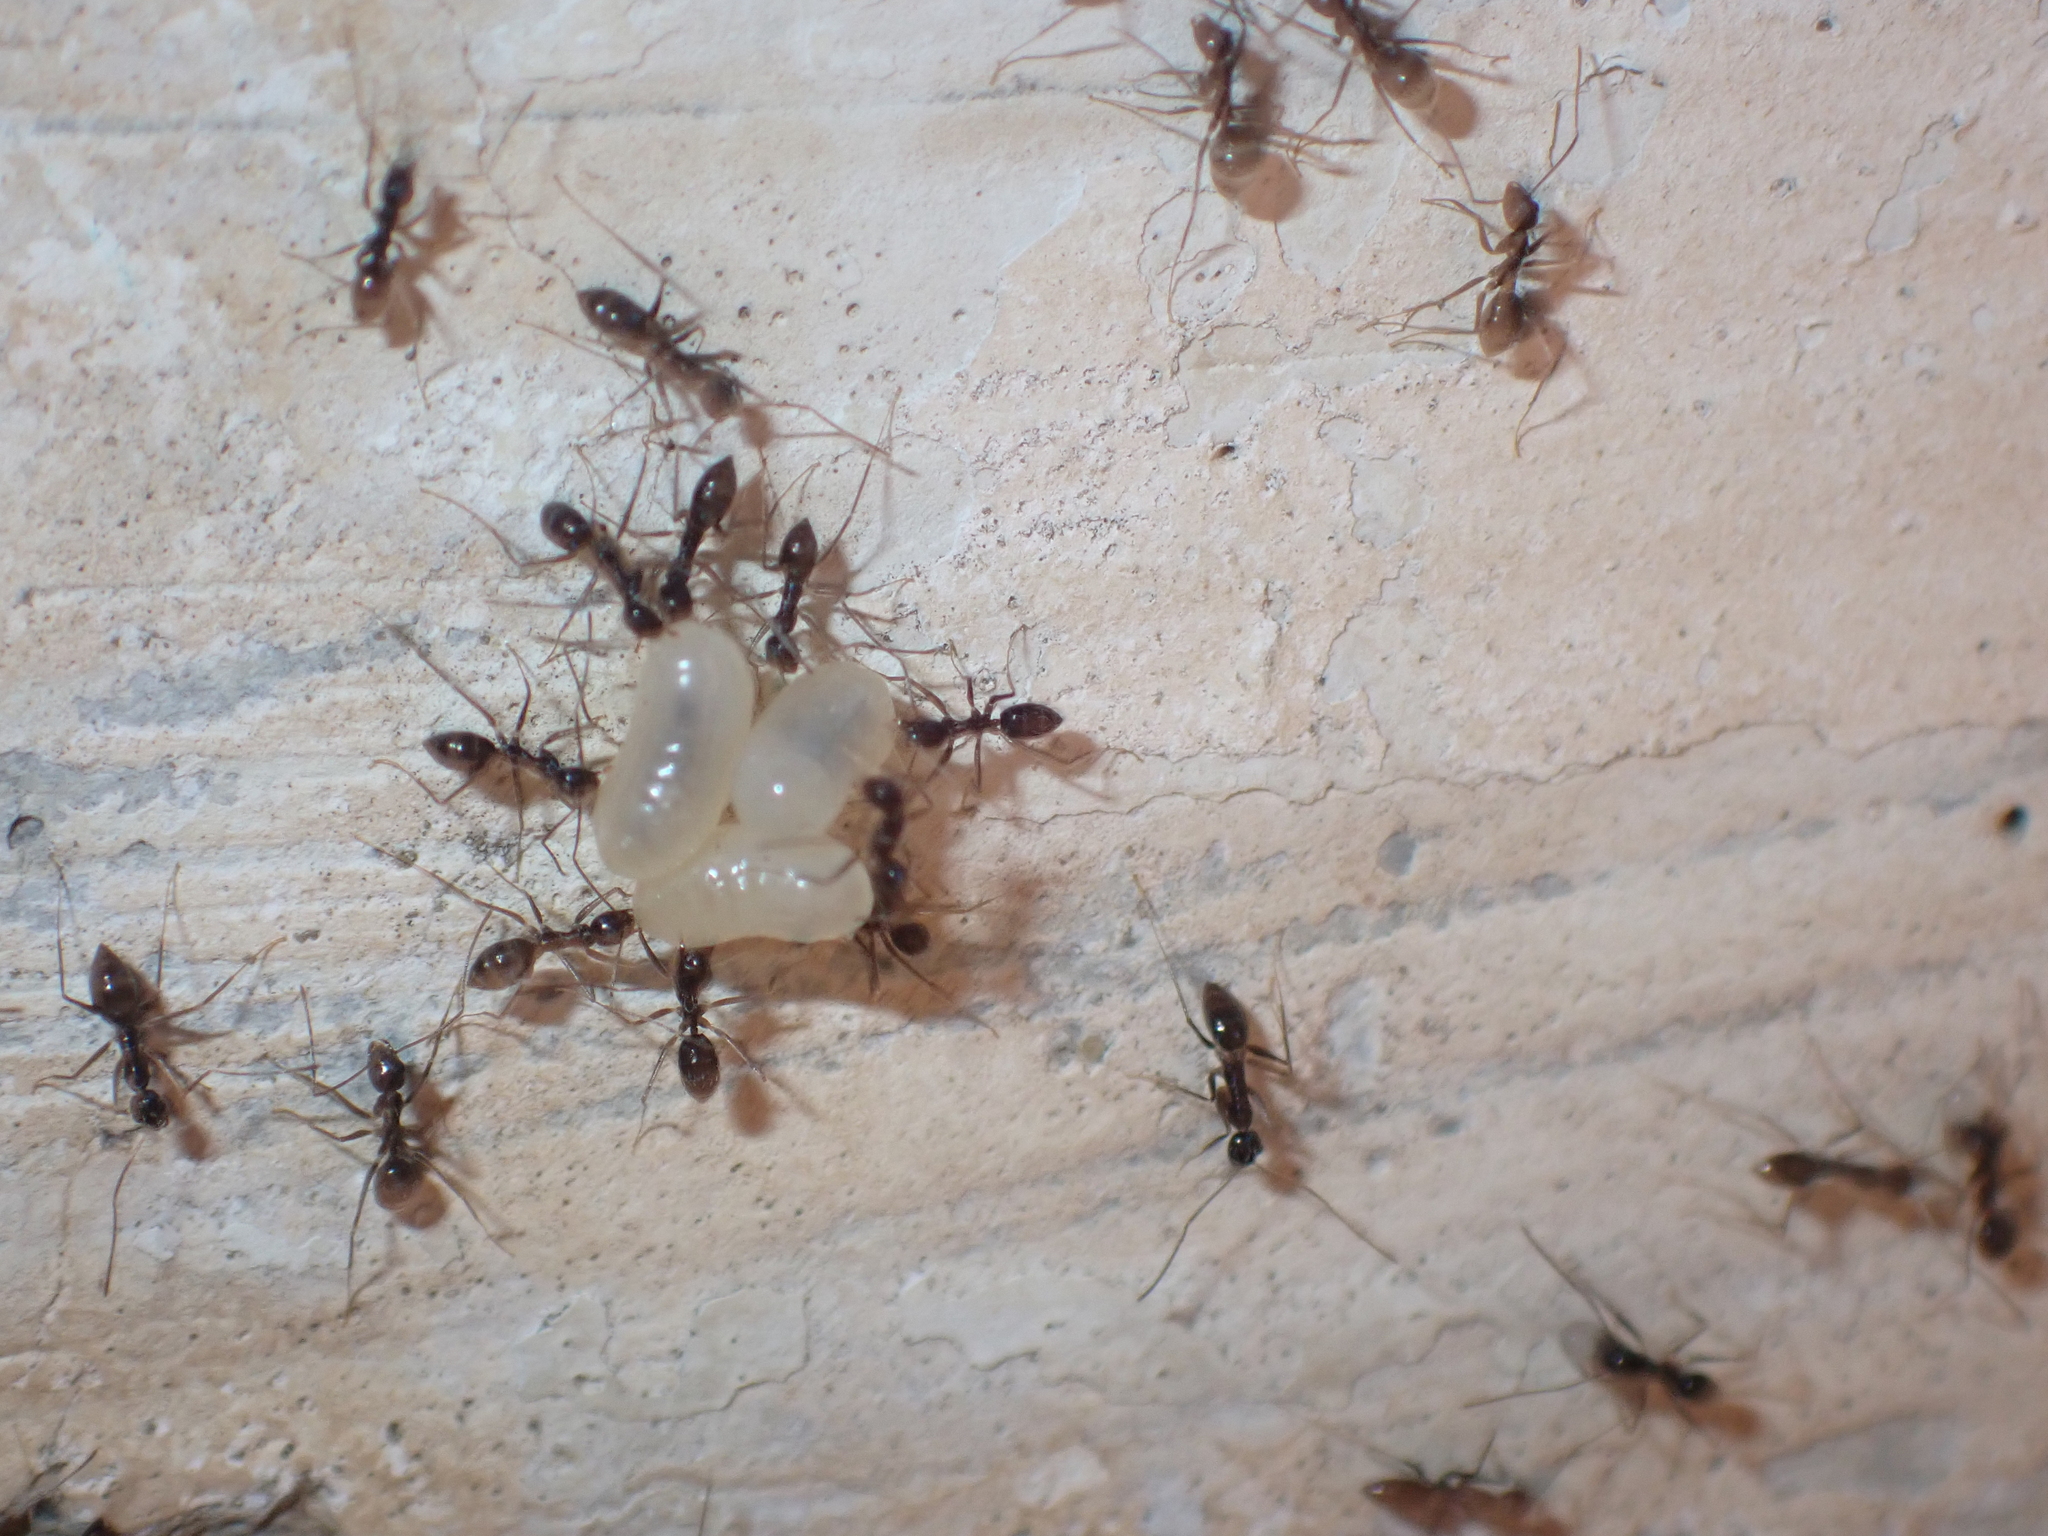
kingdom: Animalia
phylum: Arthropoda
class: Insecta
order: Hymenoptera
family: Formicidae
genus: Paratrechina
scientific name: Paratrechina longicornis
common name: Longhorned crazy ant
